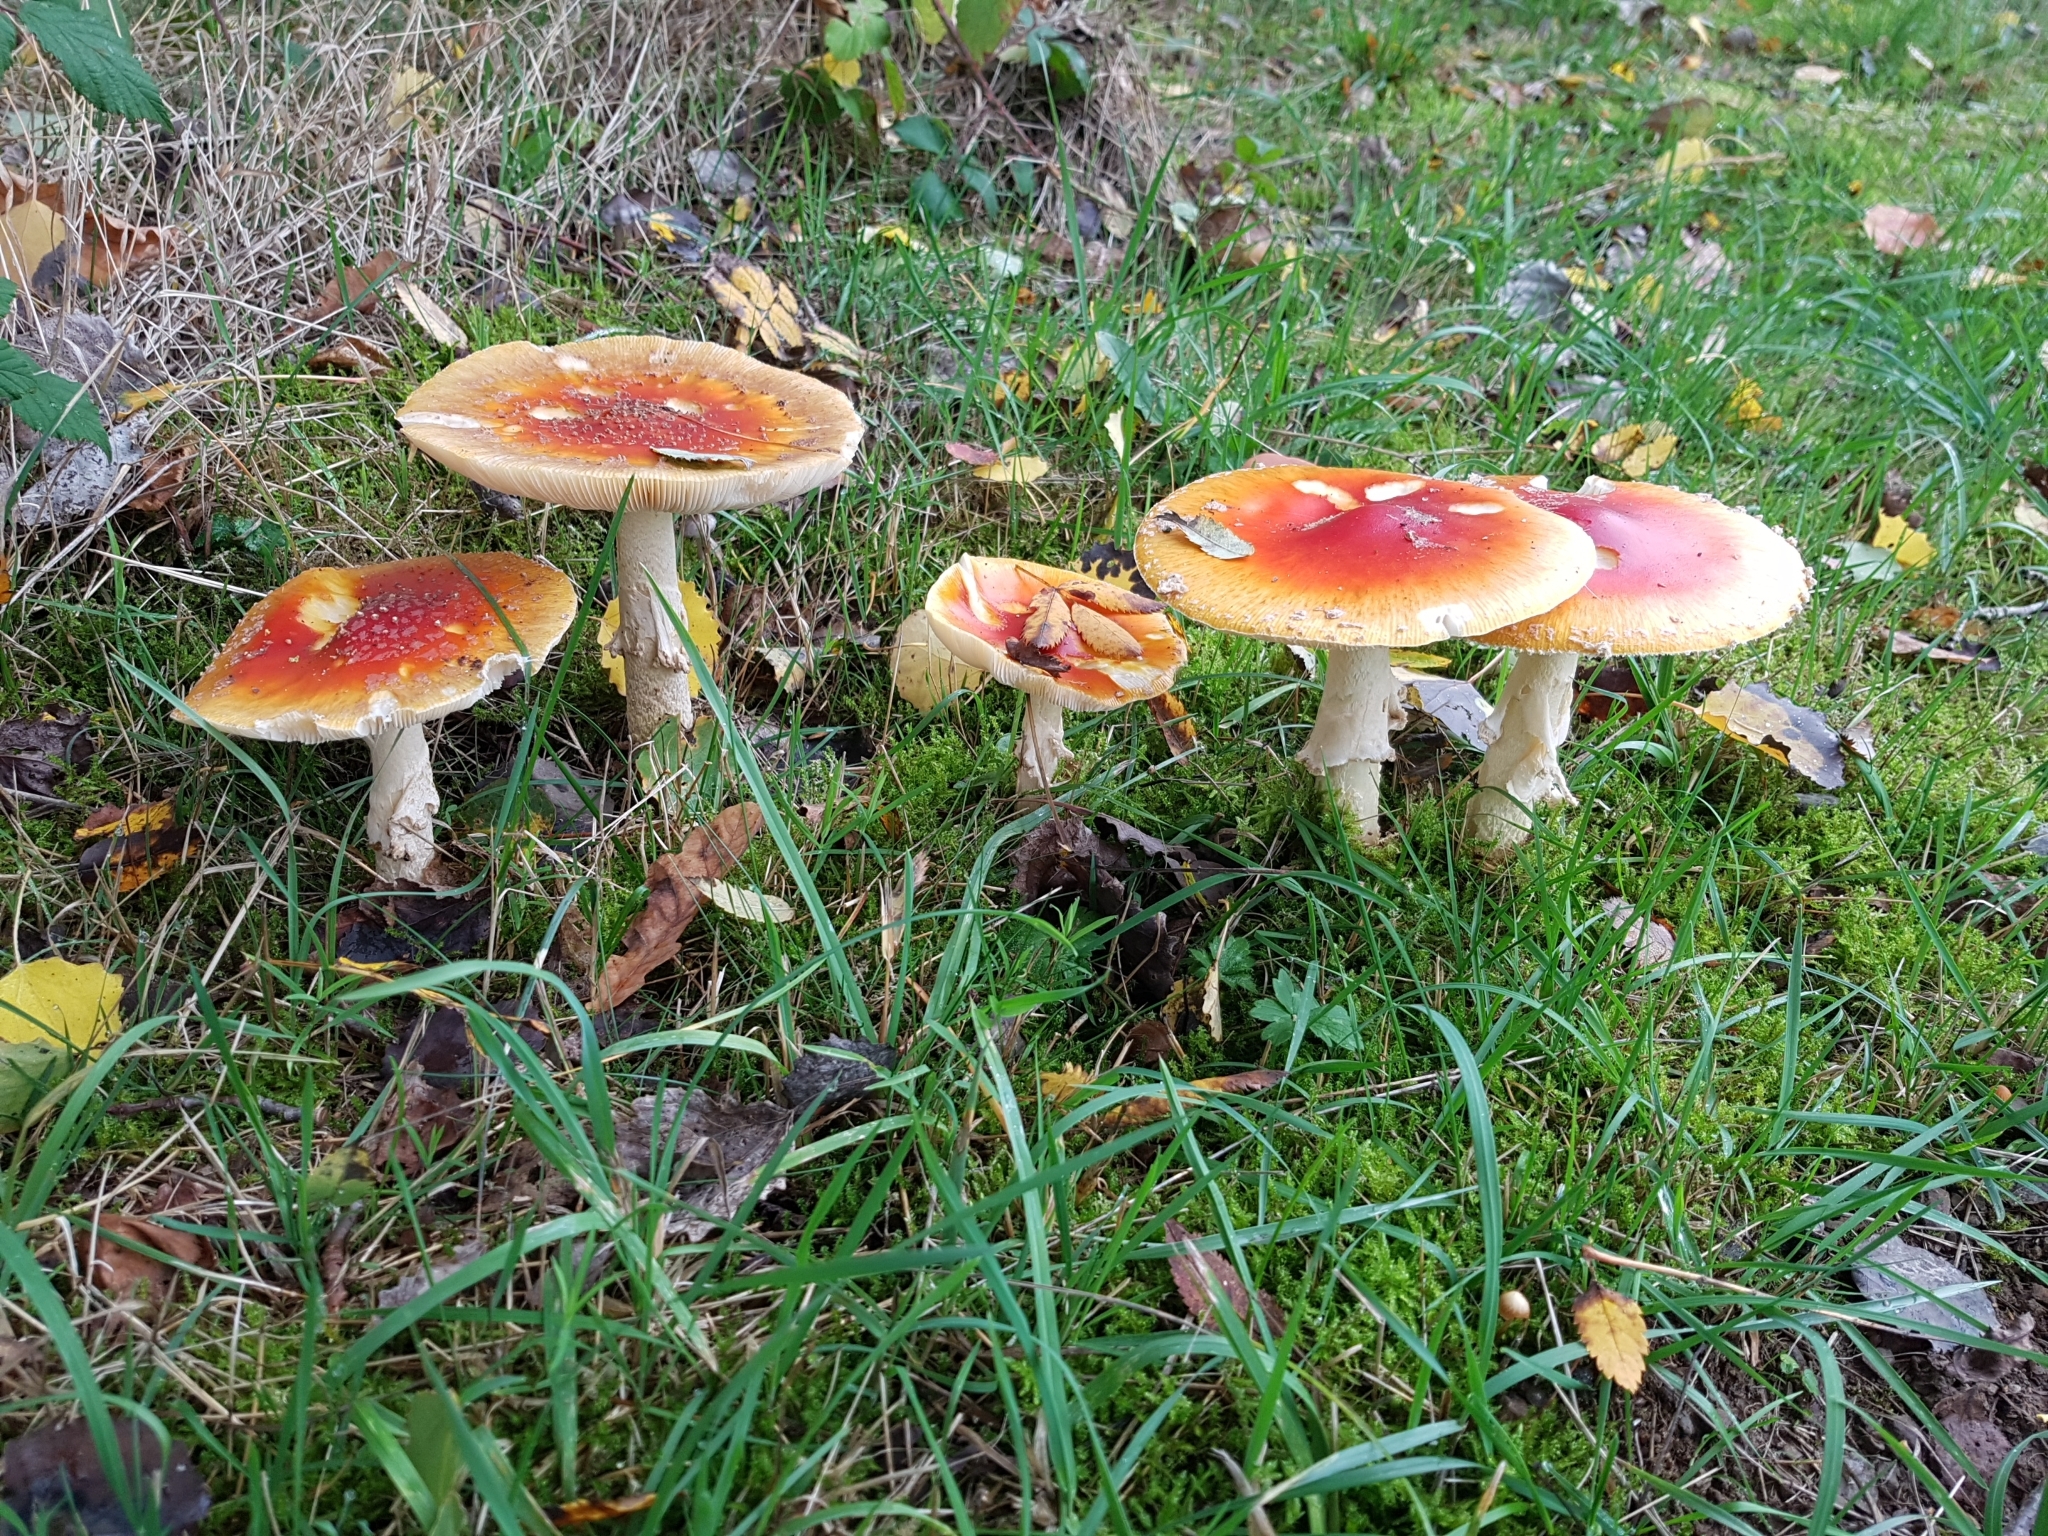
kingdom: Fungi
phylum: Basidiomycota
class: Agaricomycetes
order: Agaricales
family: Amanitaceae
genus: Amanita
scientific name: Amanita muscaria
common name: Fly agaric
